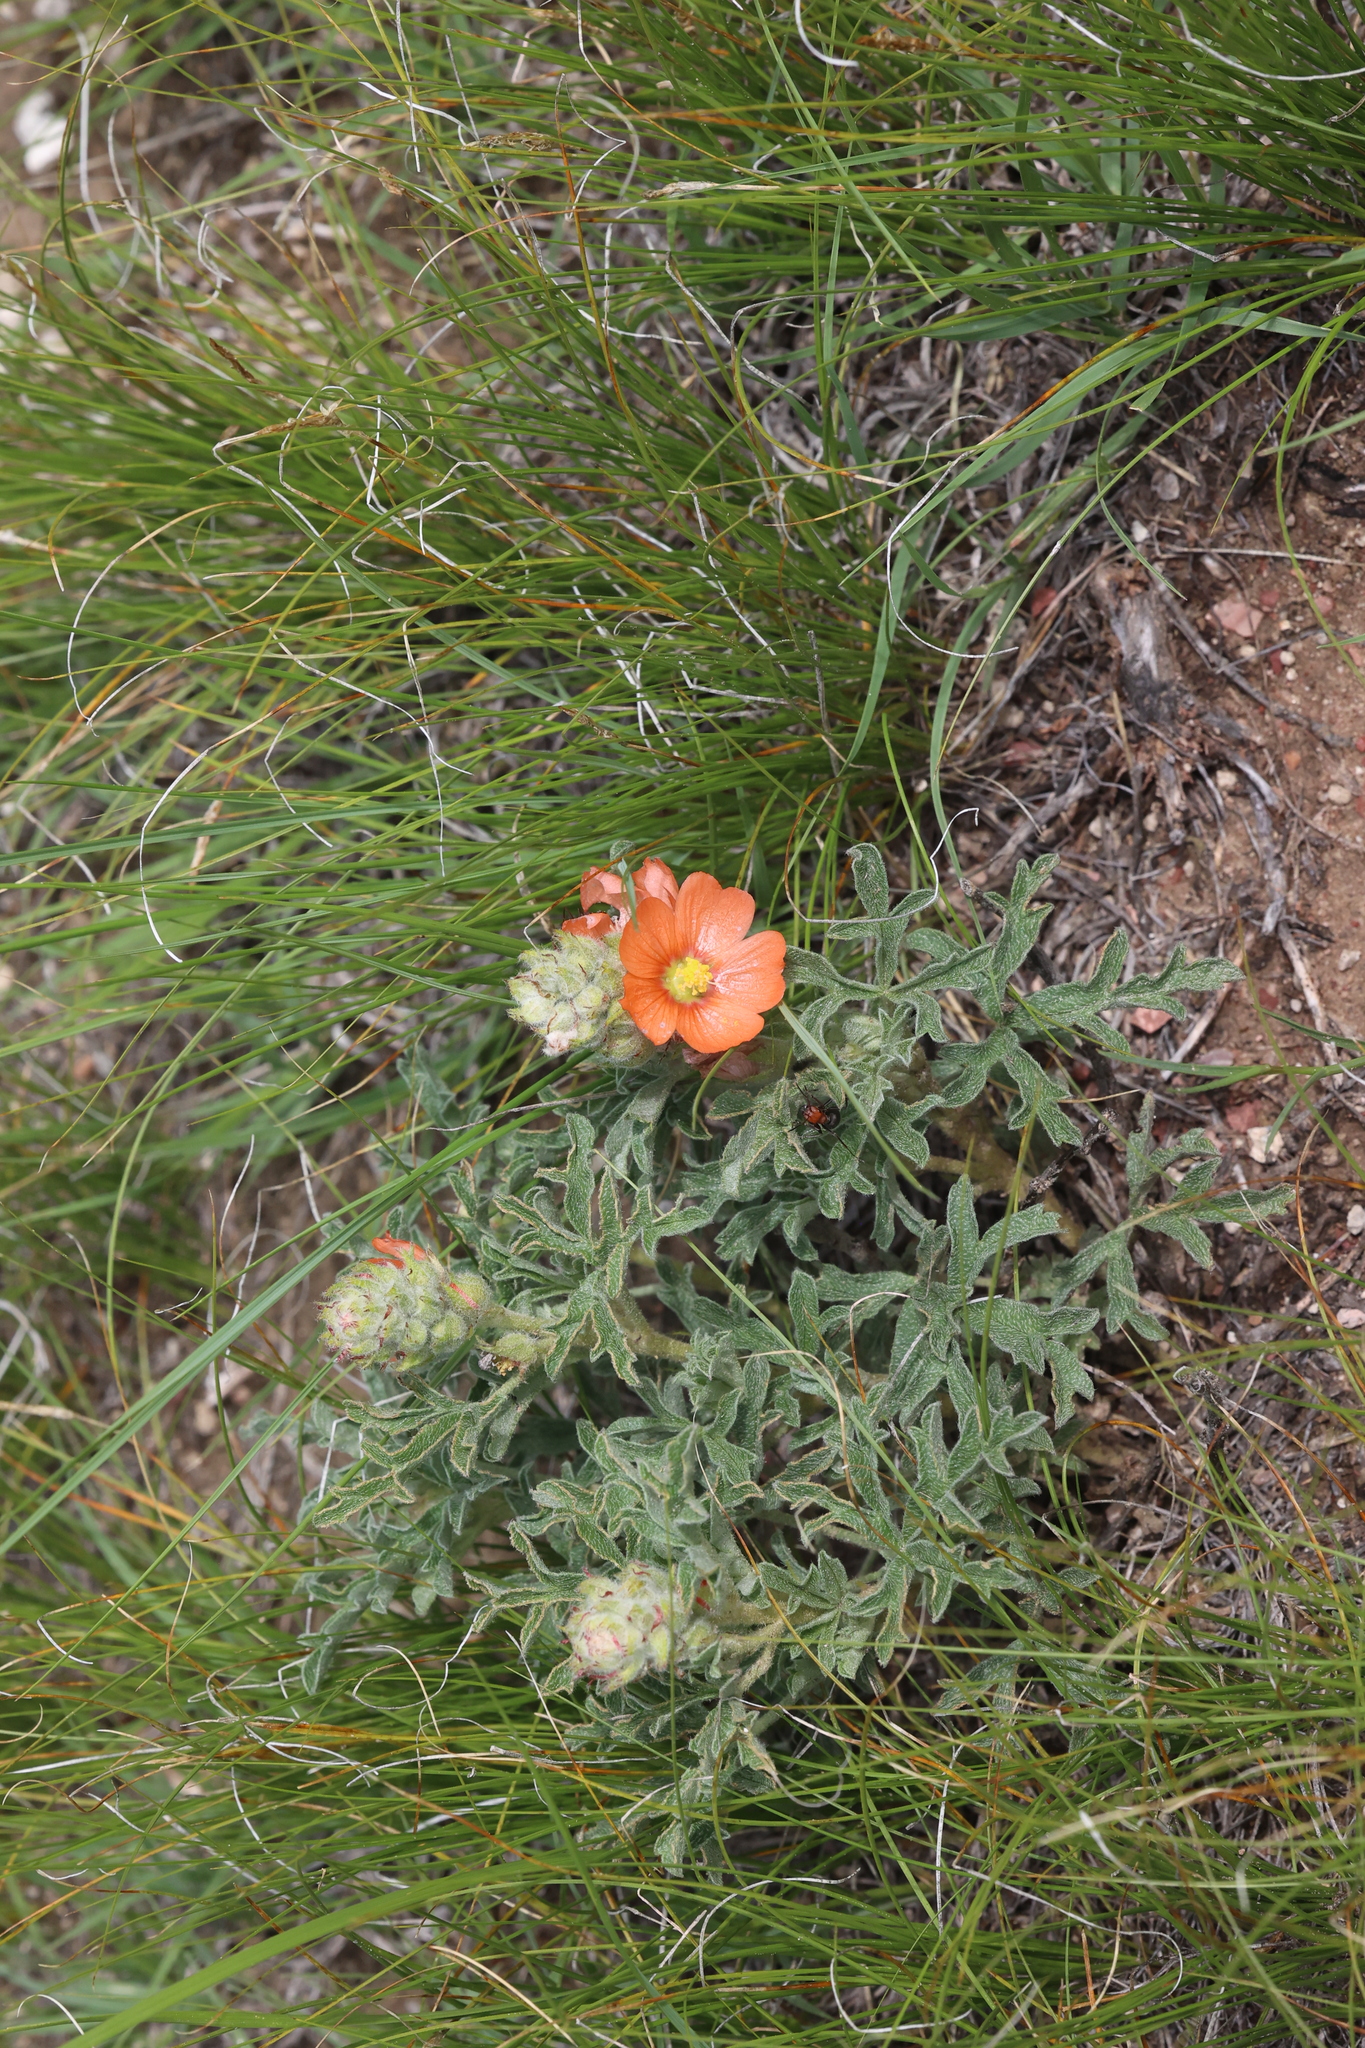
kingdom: Plantae
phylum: Tracheophyta
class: Magnoliopsida
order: Malvales
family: Malvaceae
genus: Sphaeralcea
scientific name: Sphaeralcea coccinea
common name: Moss-rose
